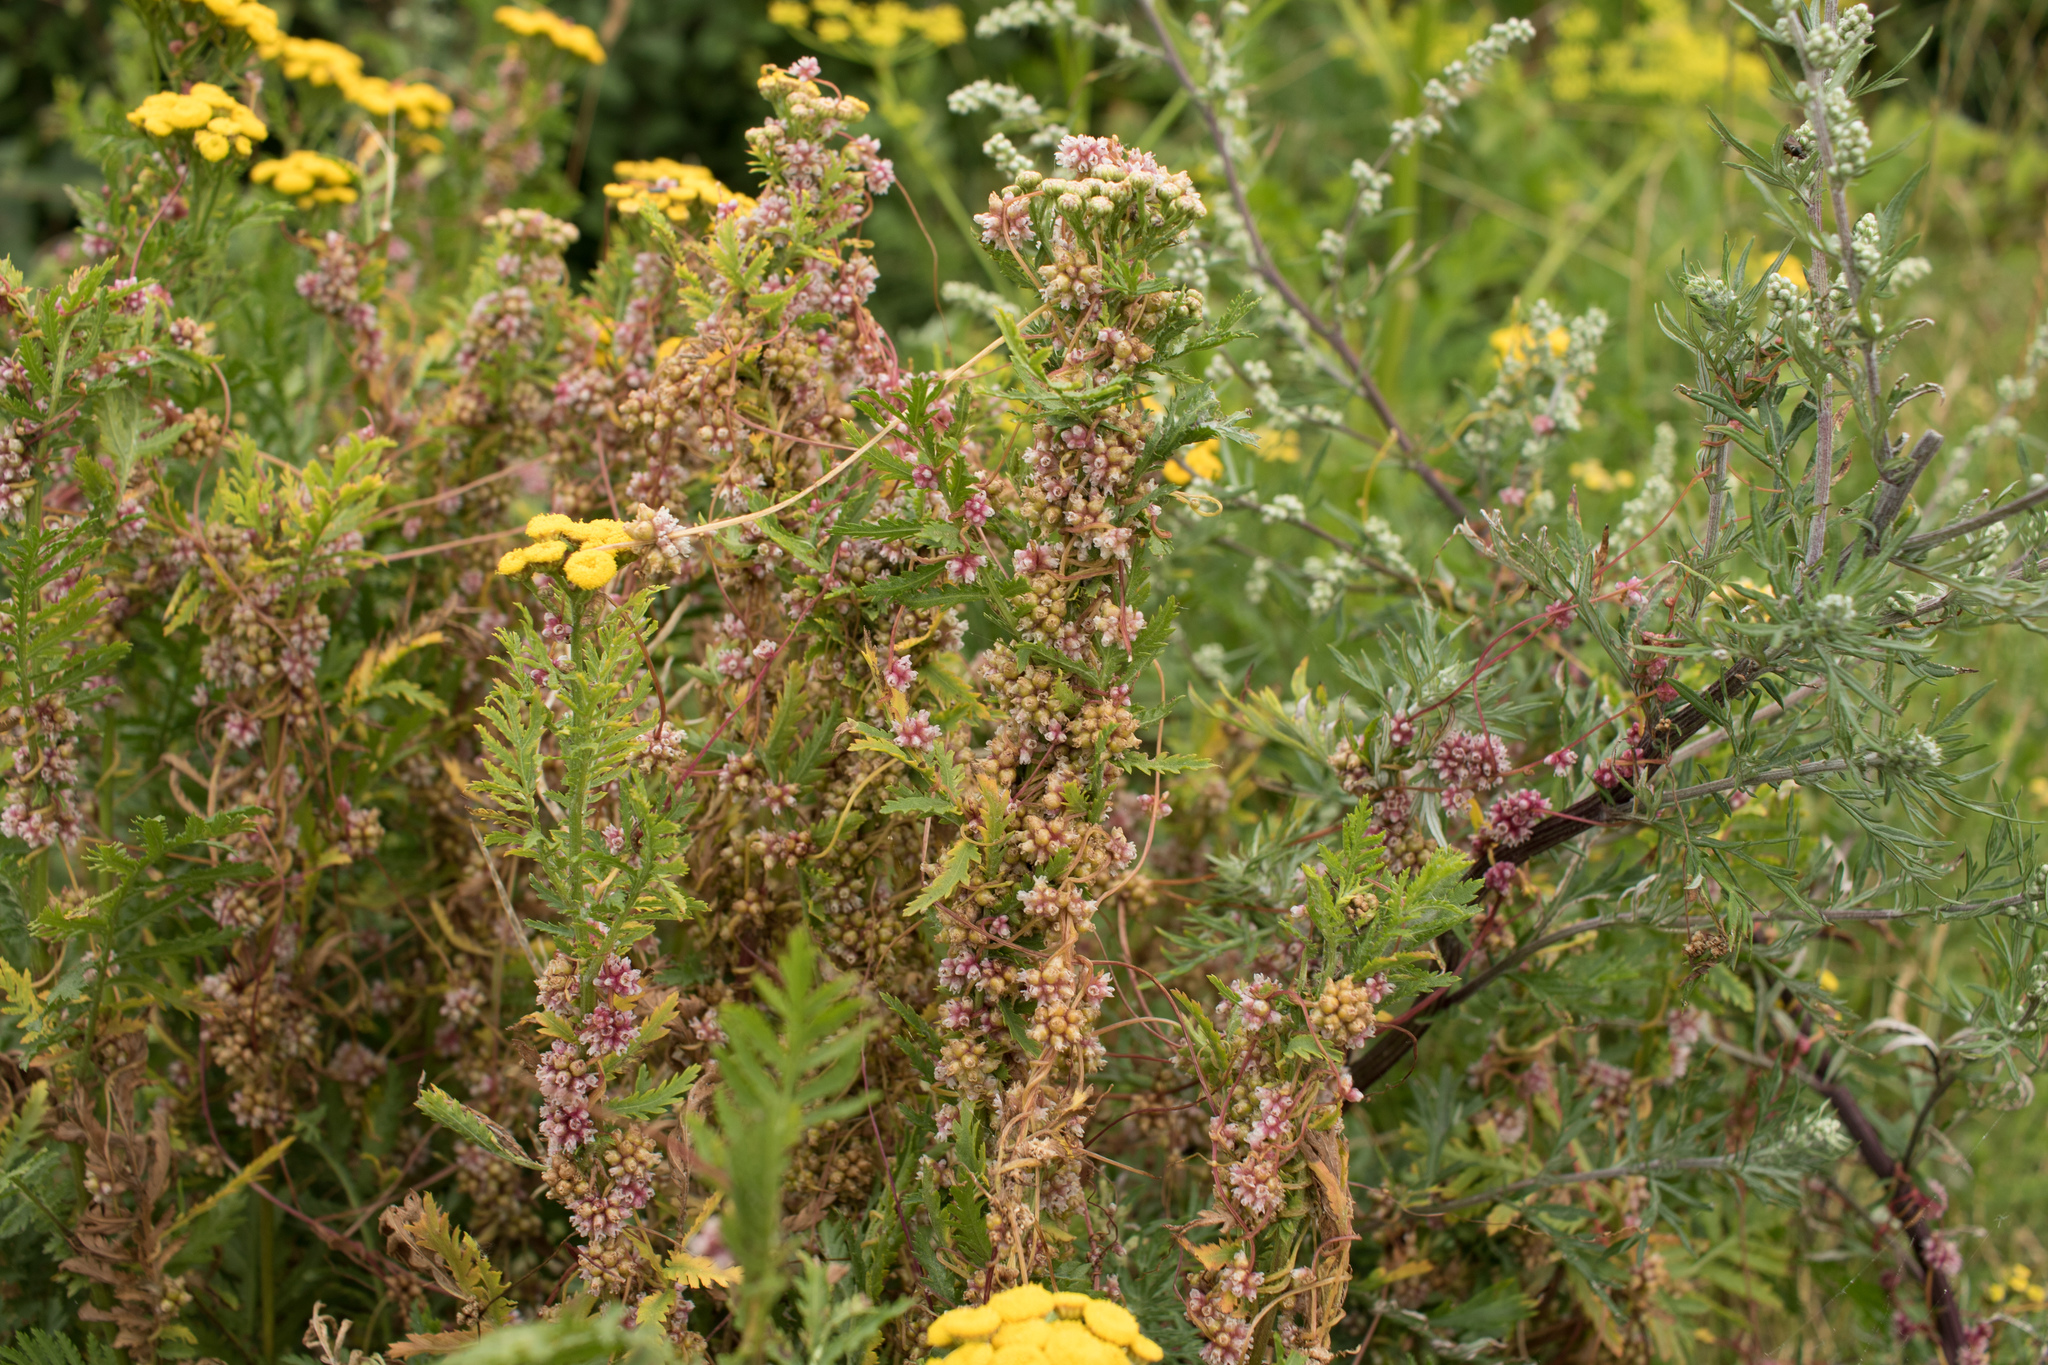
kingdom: Plantae
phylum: Tracheophyta
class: Magnoliopsida
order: Asterales
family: Asteraceae
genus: Tanacetum
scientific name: Tanacetum vulgare
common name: Common tansy
